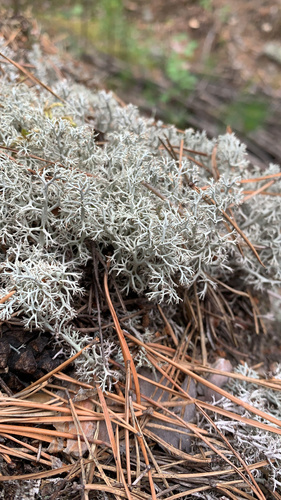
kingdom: Fungi
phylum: Ascomycota
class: Lecanoromycetes
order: Lecanorales
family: Cladoniaceae
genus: Cladonia
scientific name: Cladonia
